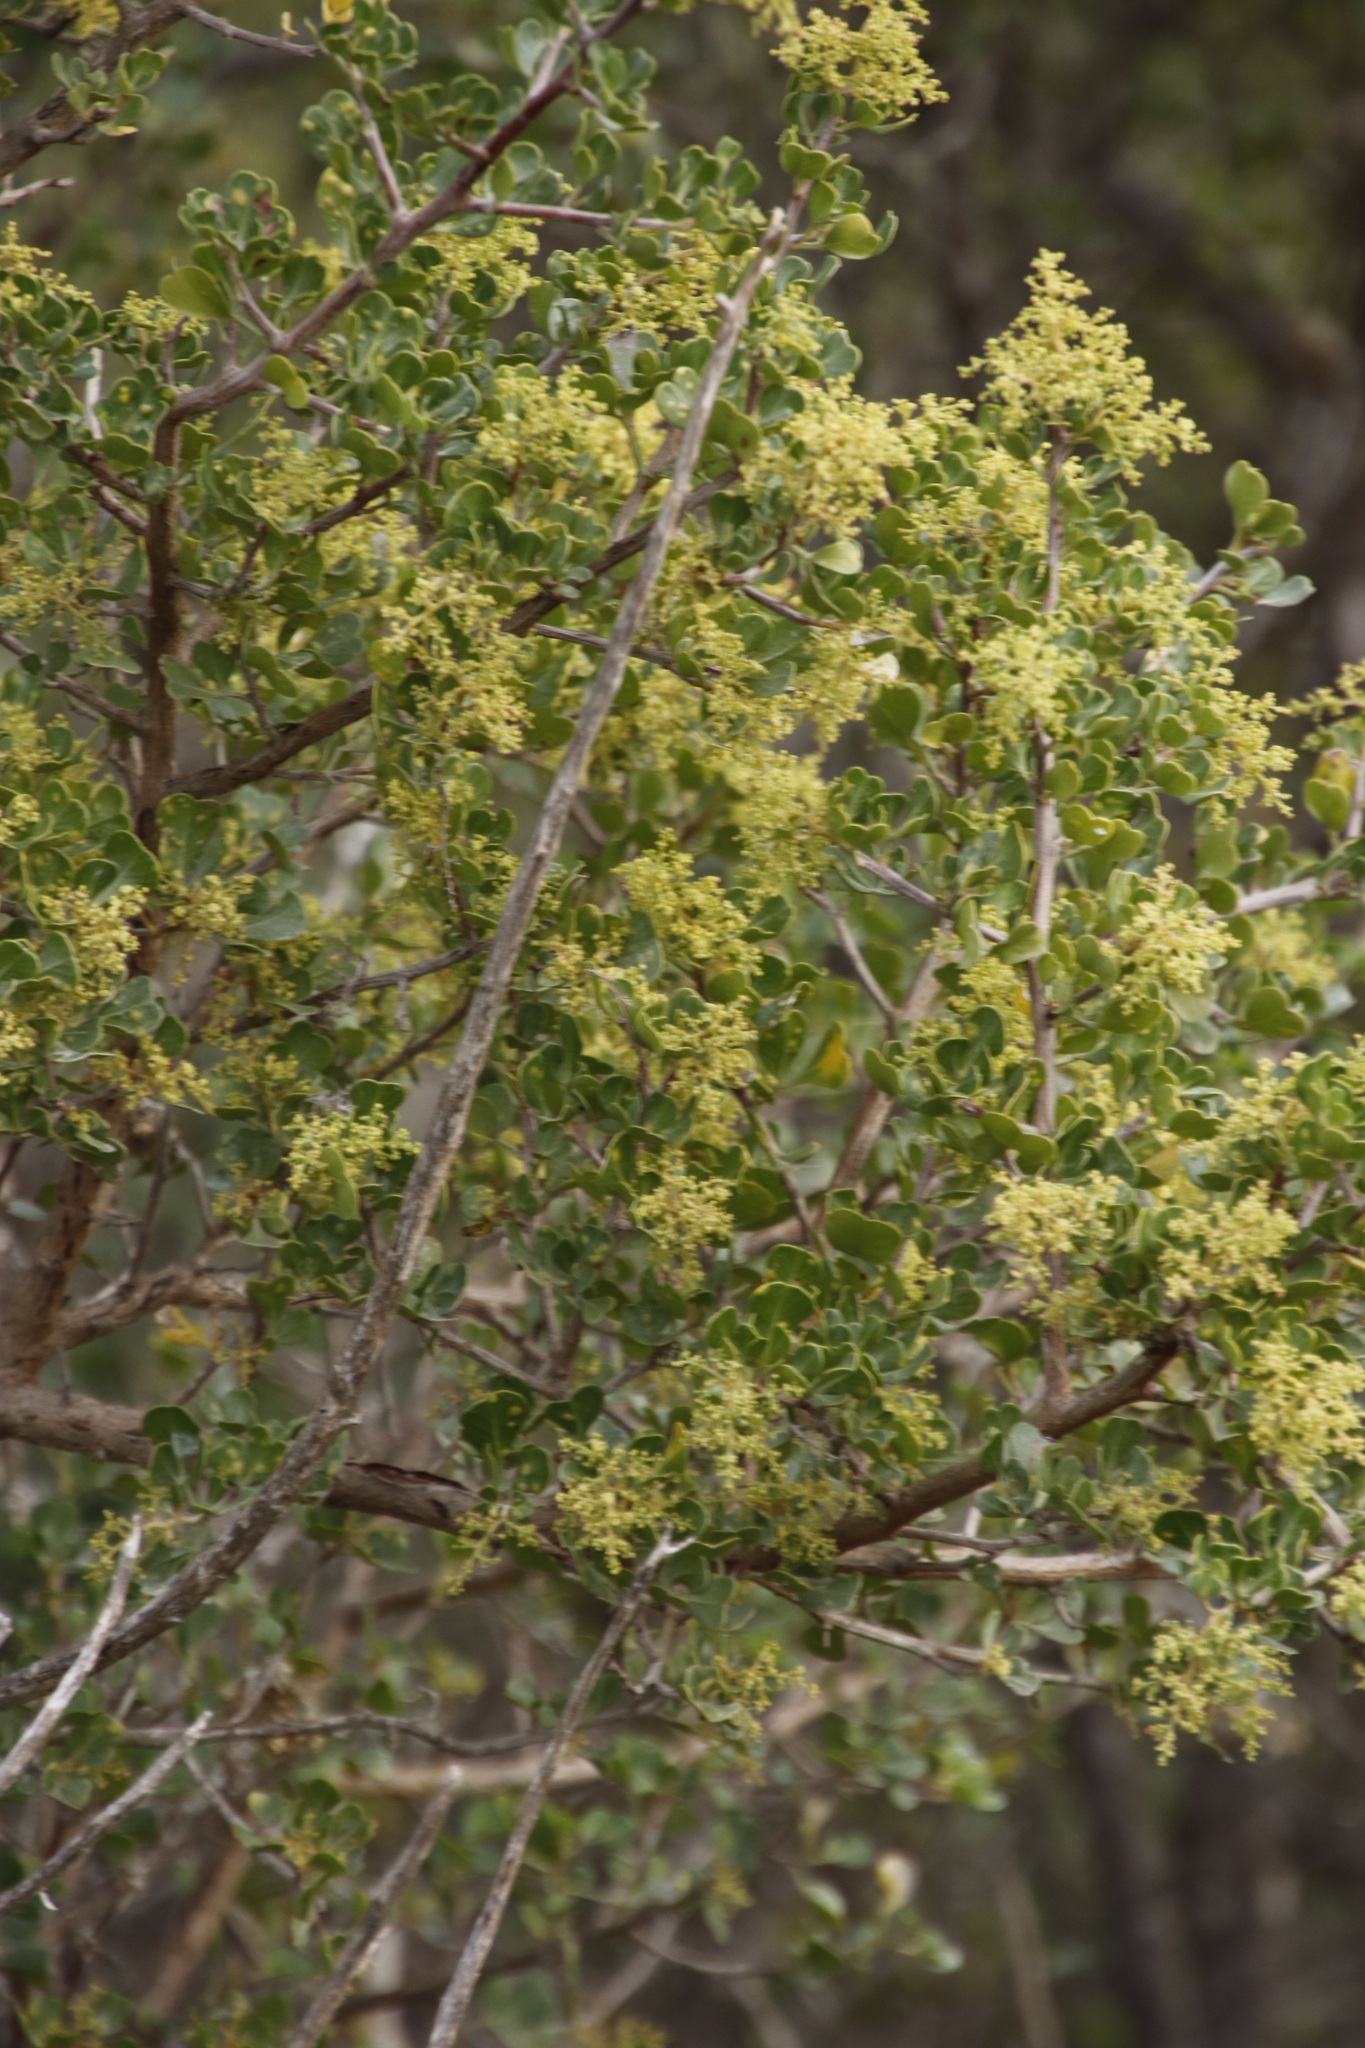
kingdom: Plantae
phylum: Tracheophyta
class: Magnoliopsida
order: Sapindales
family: Anacardiaceae
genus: Searsia
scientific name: Searsia glauca
